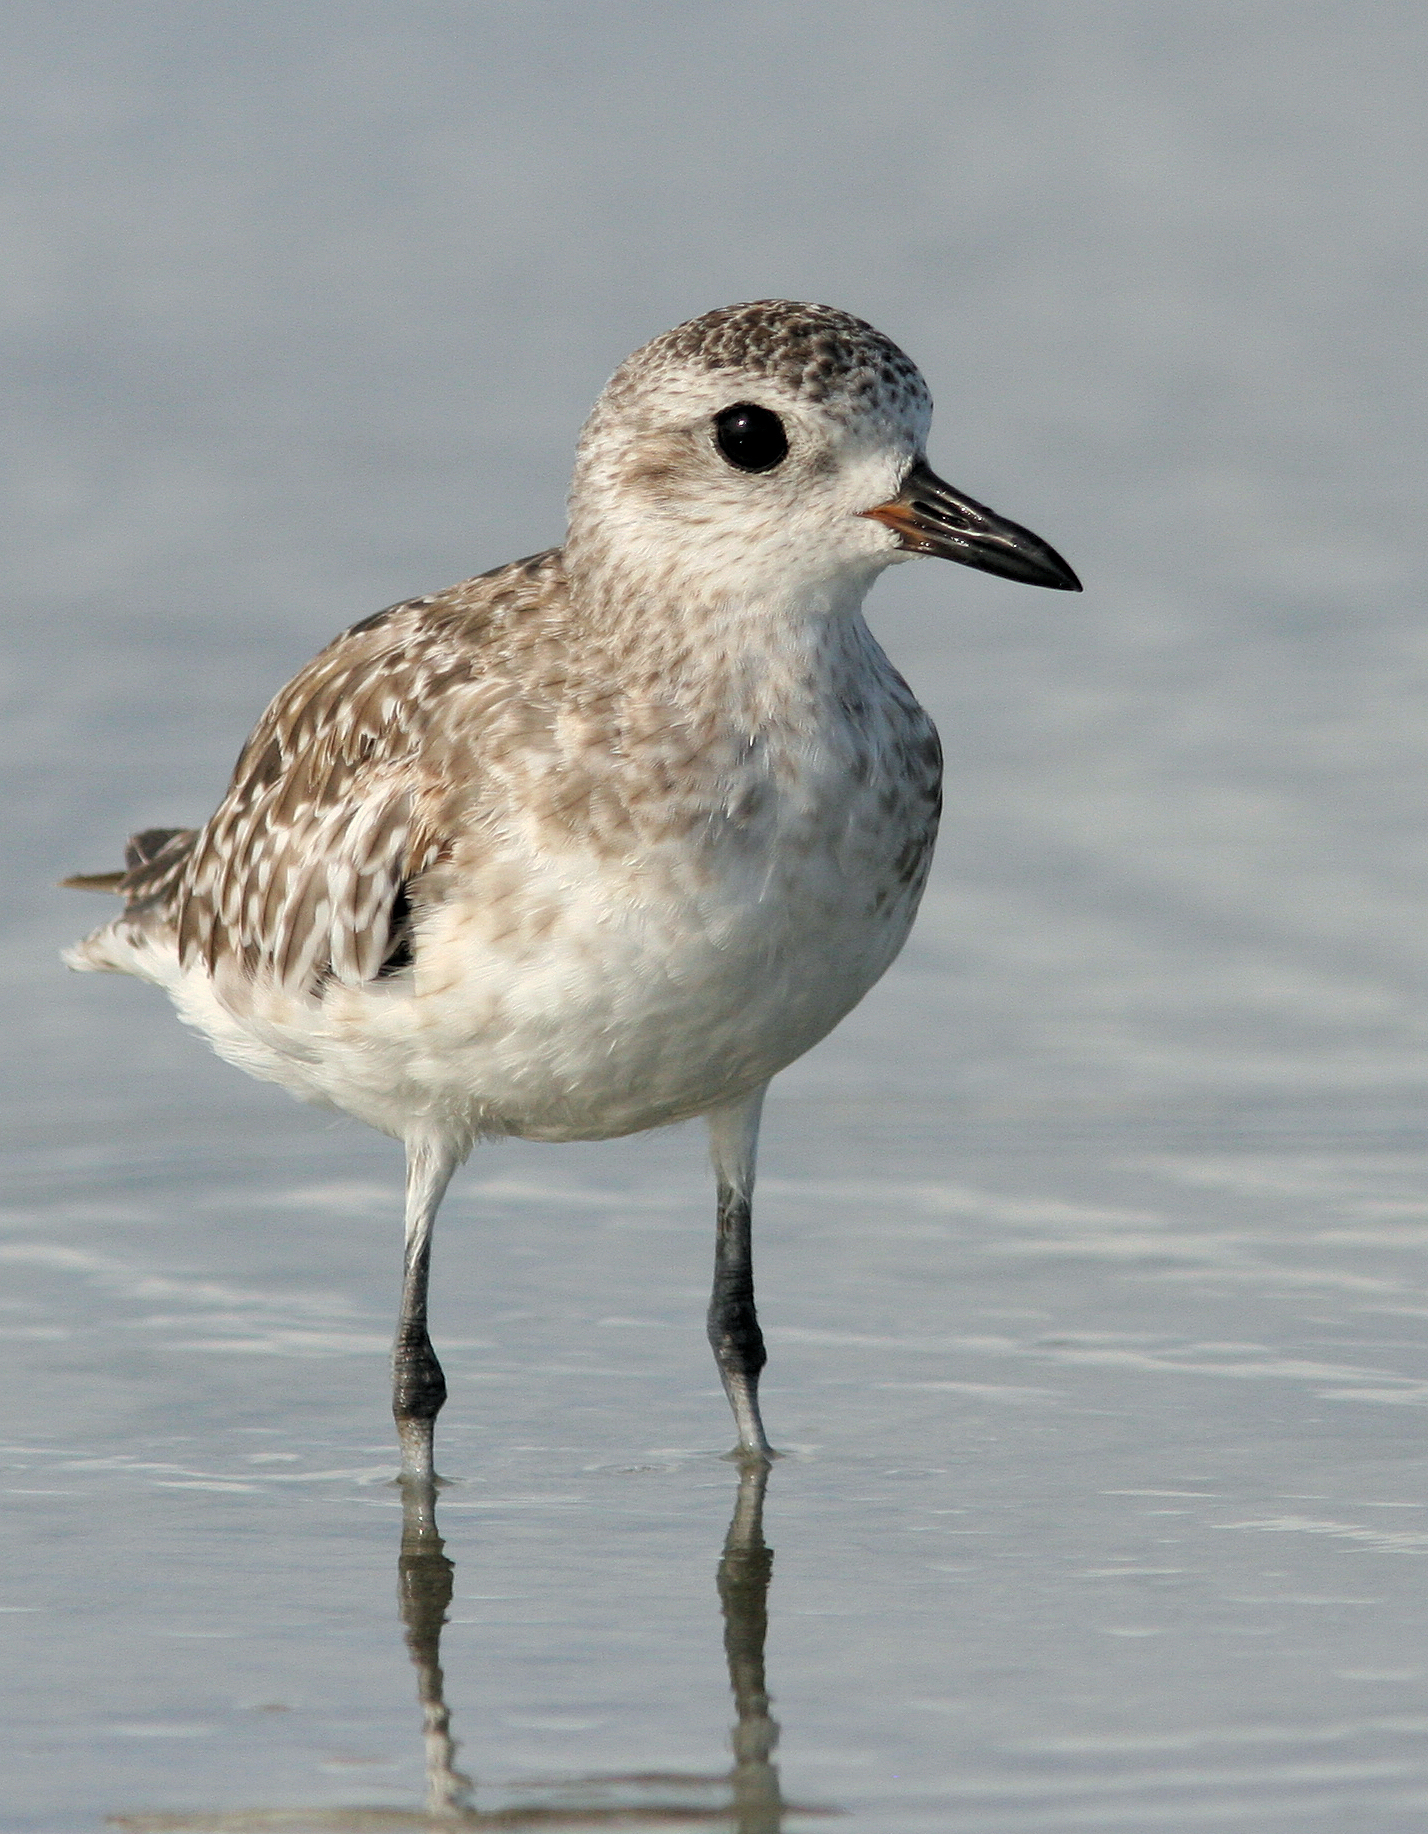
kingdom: Animalia
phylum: Chordata
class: Aves
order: Charadriiformes
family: Charadriidae
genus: Pluvialis
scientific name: Pluvialis squatarola
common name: Grey plover
